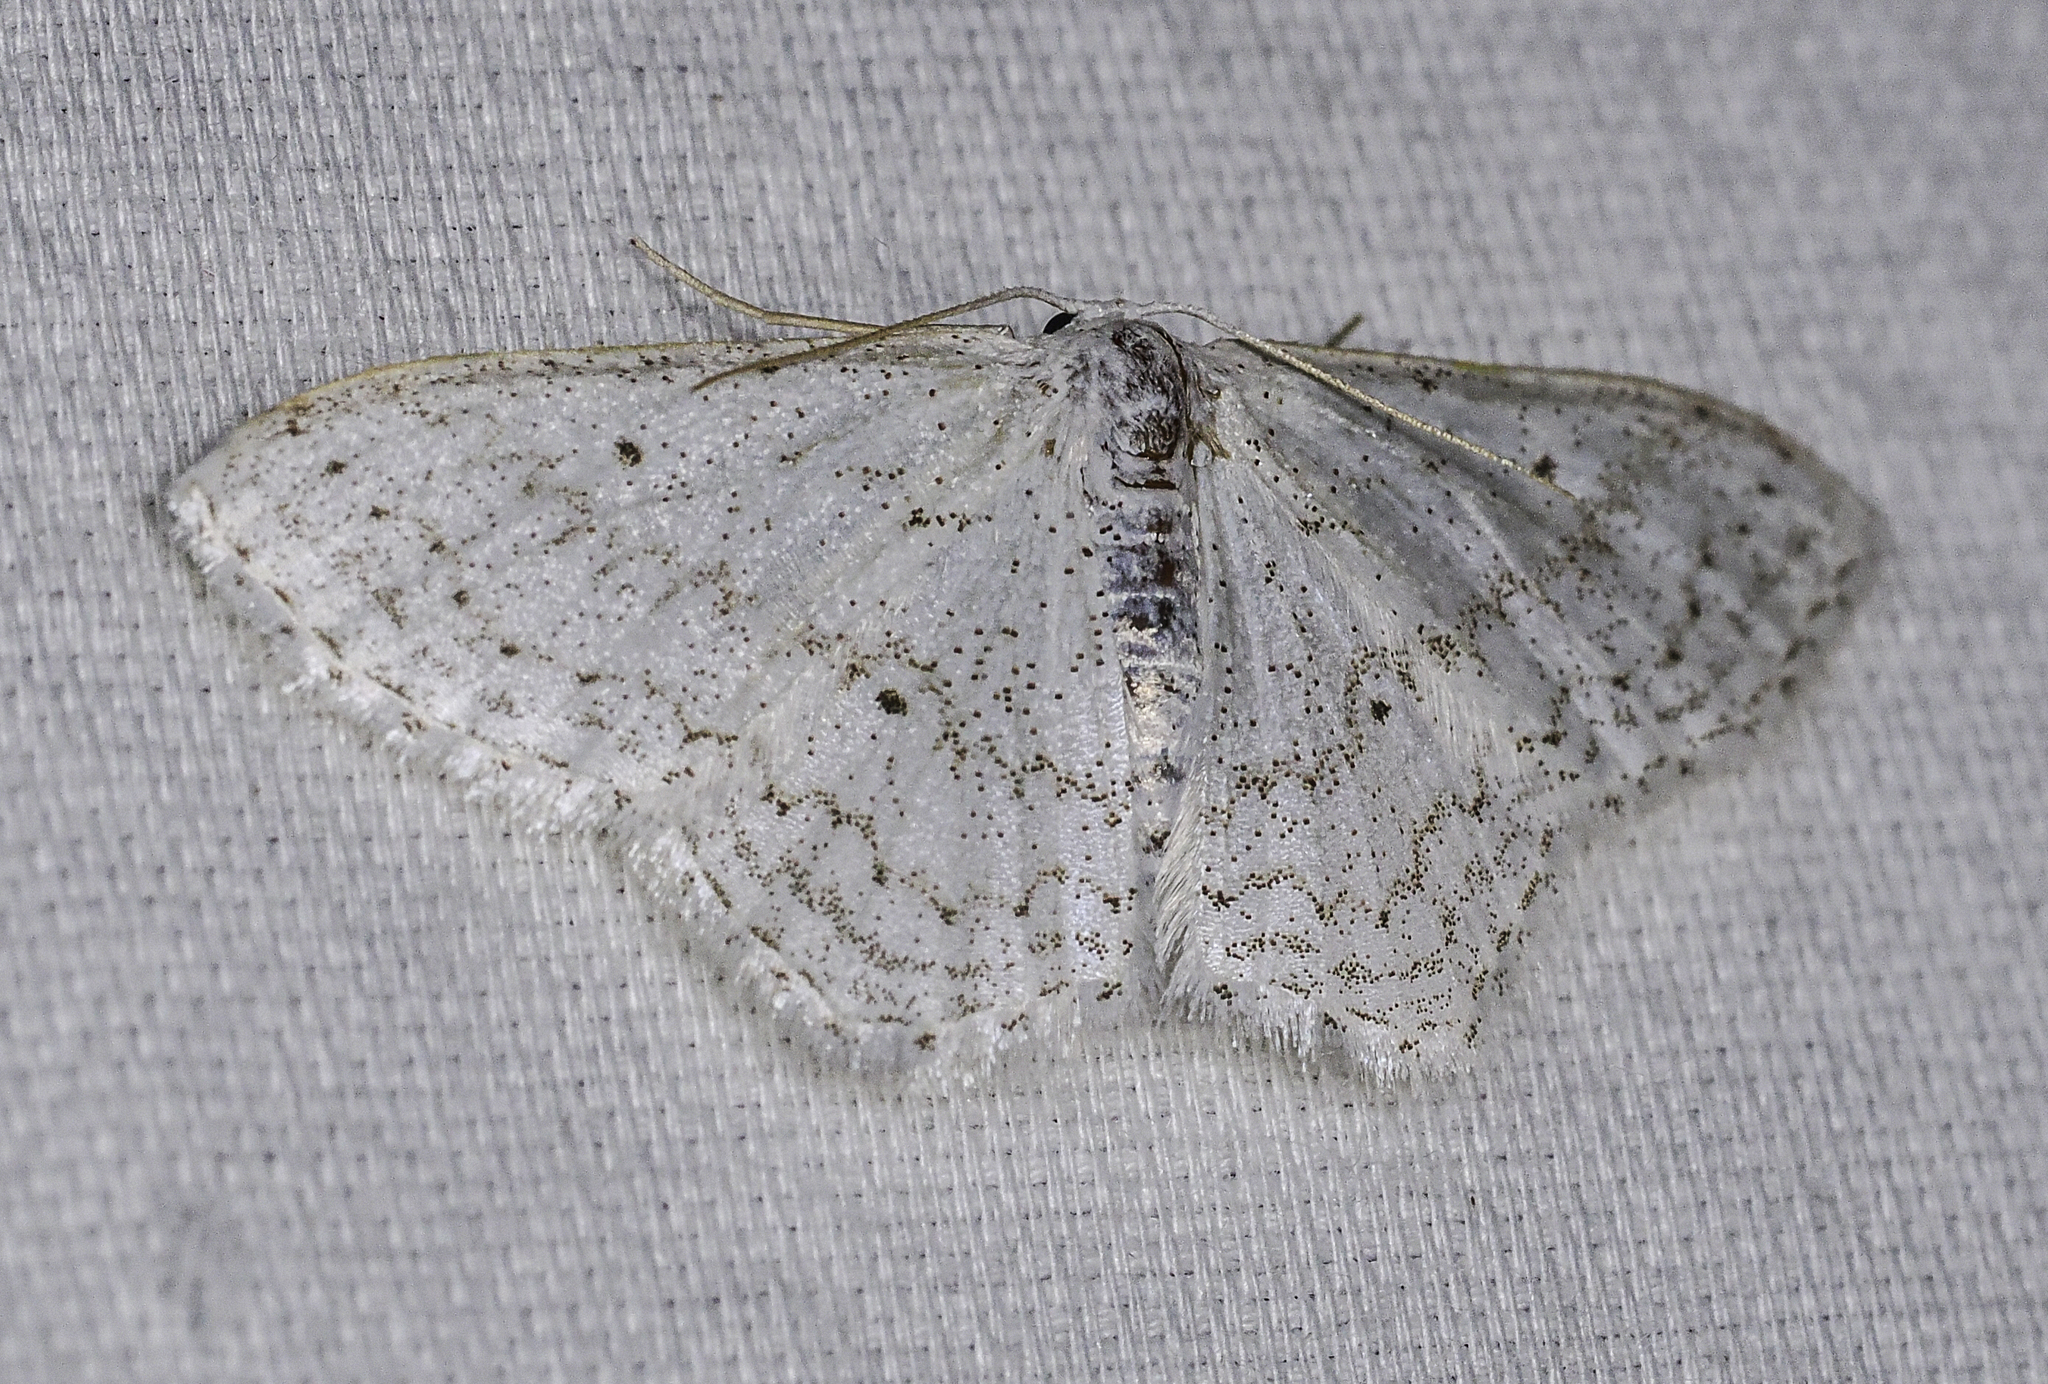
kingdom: Animalia
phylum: Arthropoda
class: Insecta
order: Lepidoptera
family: Geometridae
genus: Idaea
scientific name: Idaea tacturata
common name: Dot-lined wave
